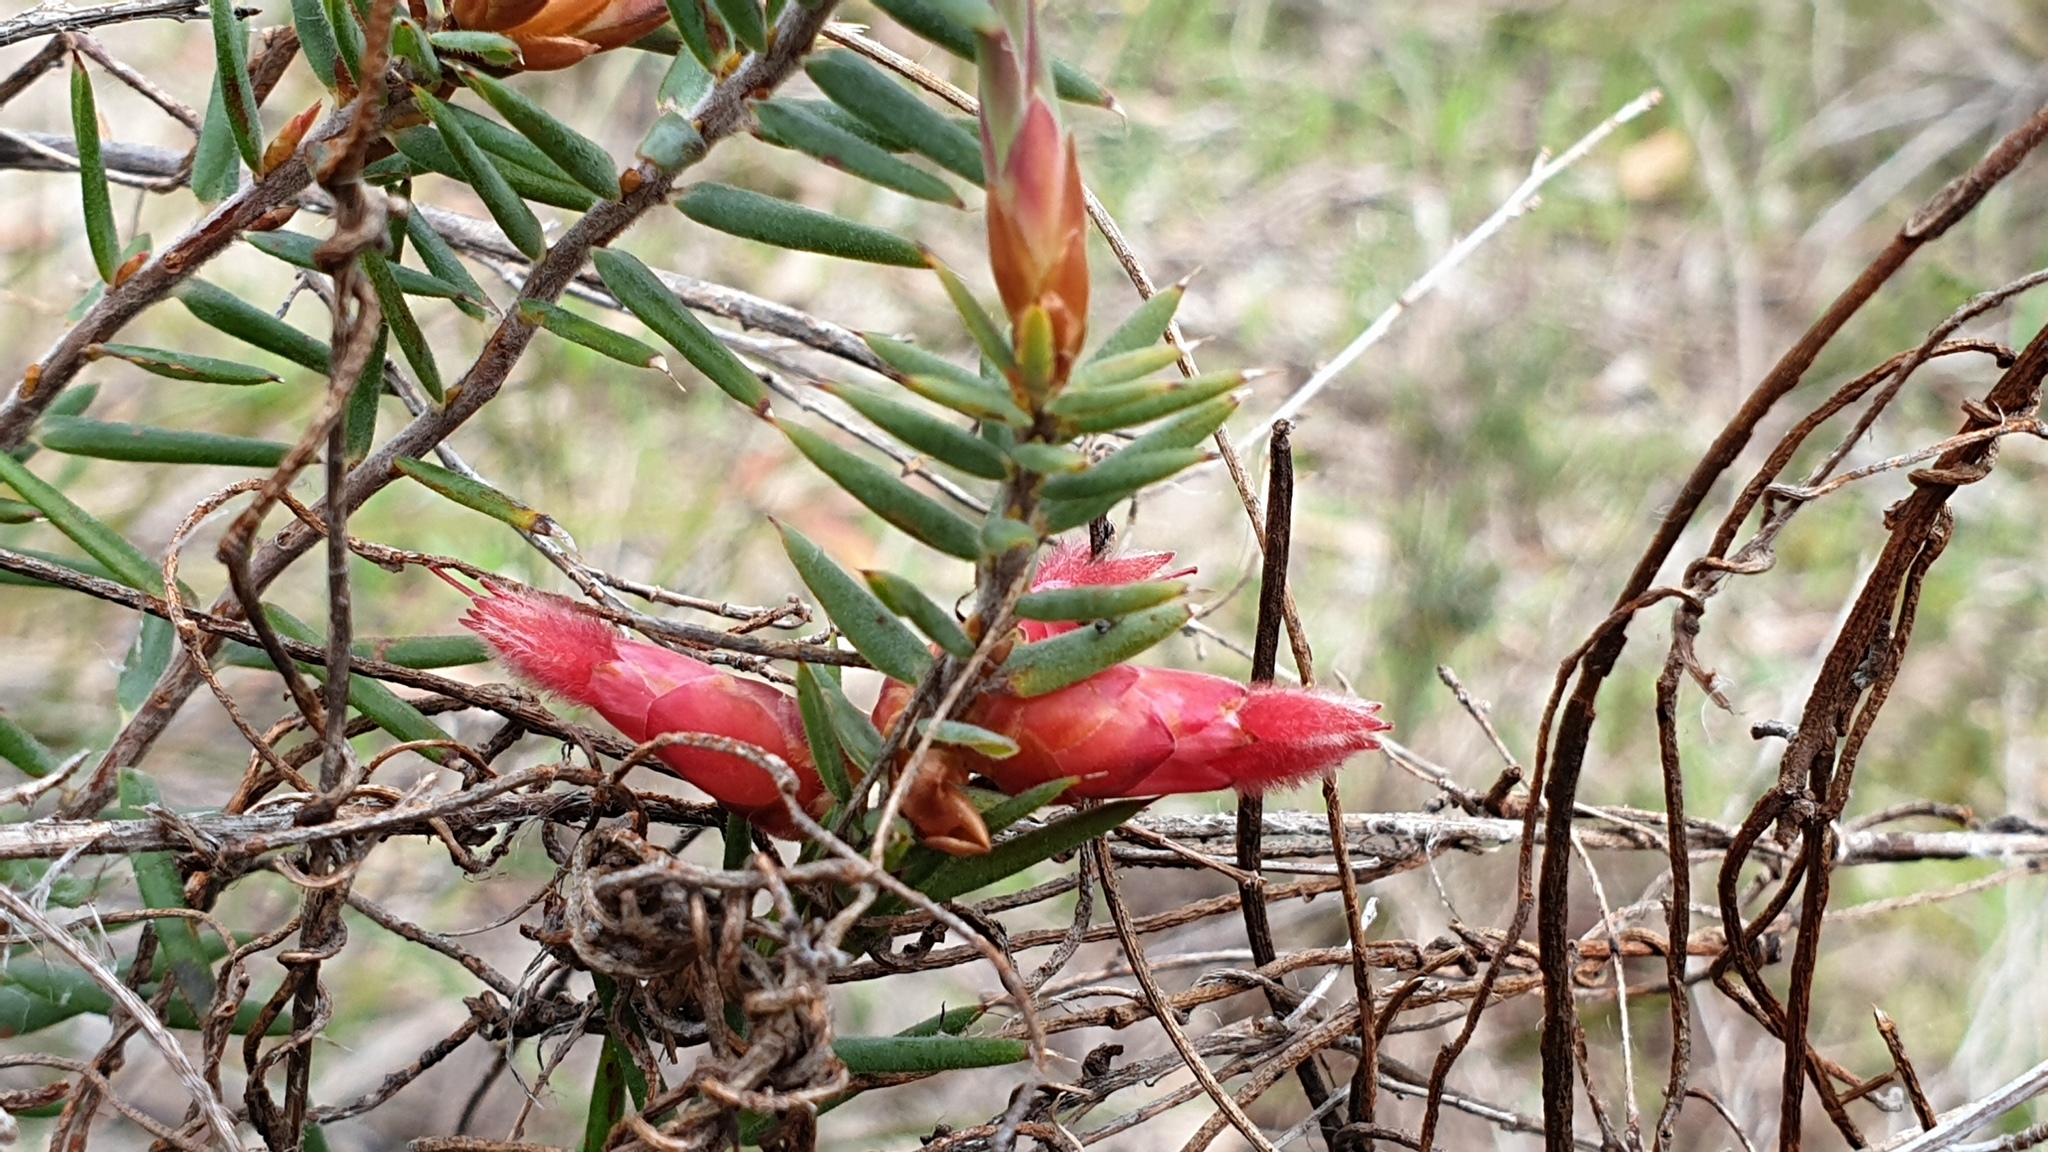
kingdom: Plantae
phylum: Tracheophyta
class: Magnoliopsida
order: Ericales
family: Ericaceae
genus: Stenanthera
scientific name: Stenanthera conostephioides
